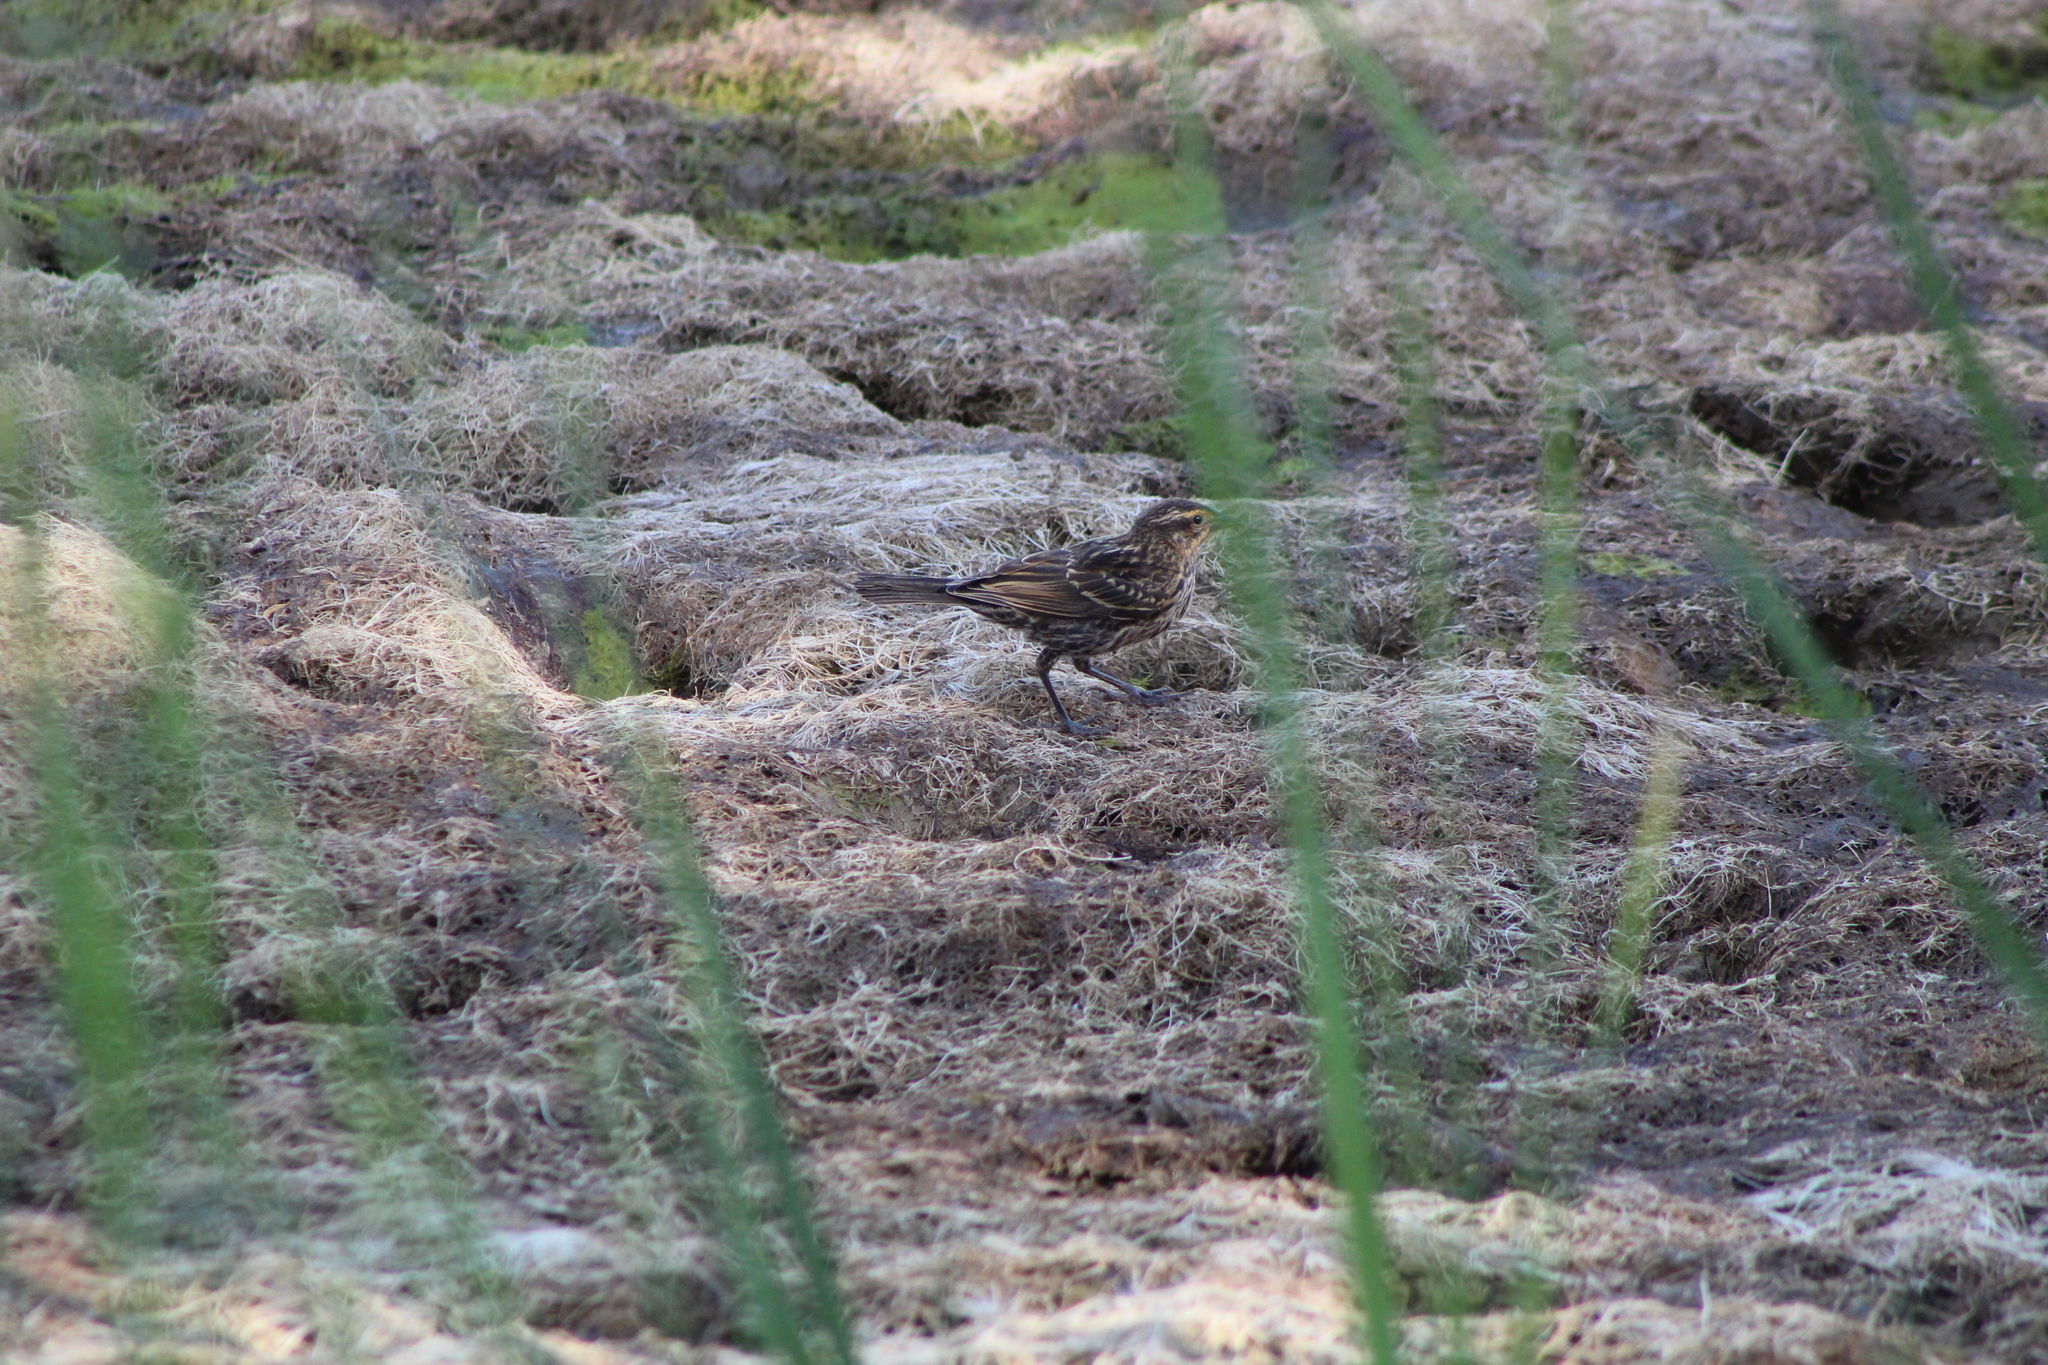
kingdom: Animalia
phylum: Chordata
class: Aves
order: Passeriformes
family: Icteridae
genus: Agelaius
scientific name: Agelaius phoeniceus
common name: Red-winged blackbird
